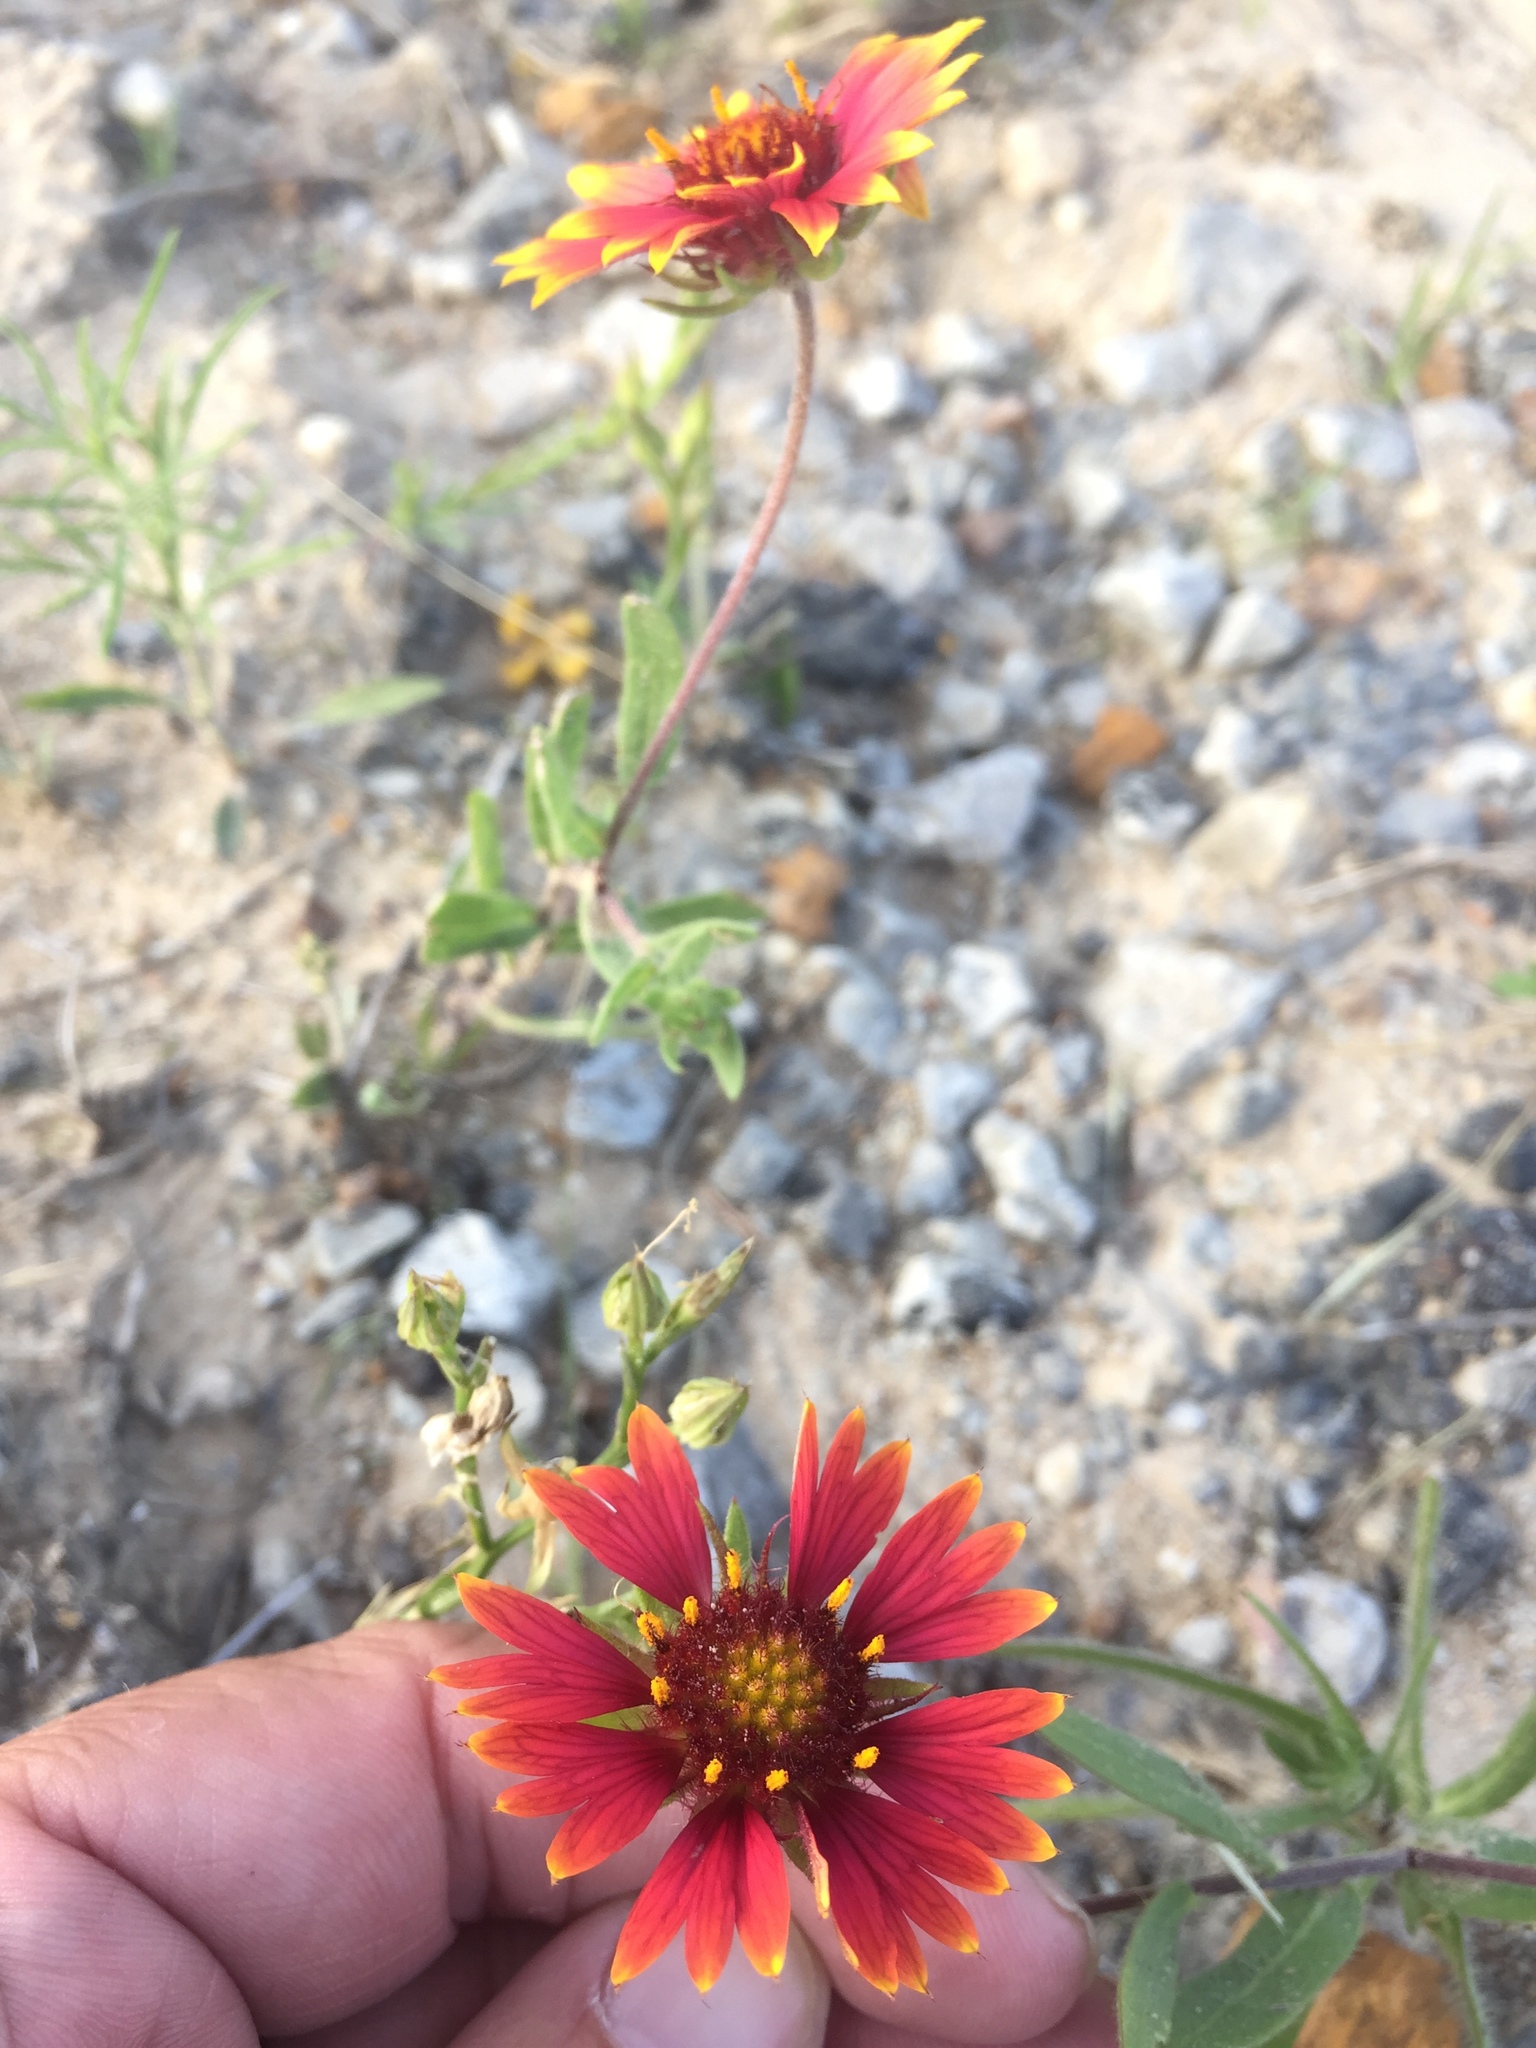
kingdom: Plantae
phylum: Tracheophyta
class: Magnoliopsida
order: Asterales
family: Asteraceae
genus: Gaillardia
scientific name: Gaillardia pulchella
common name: Firewheel
